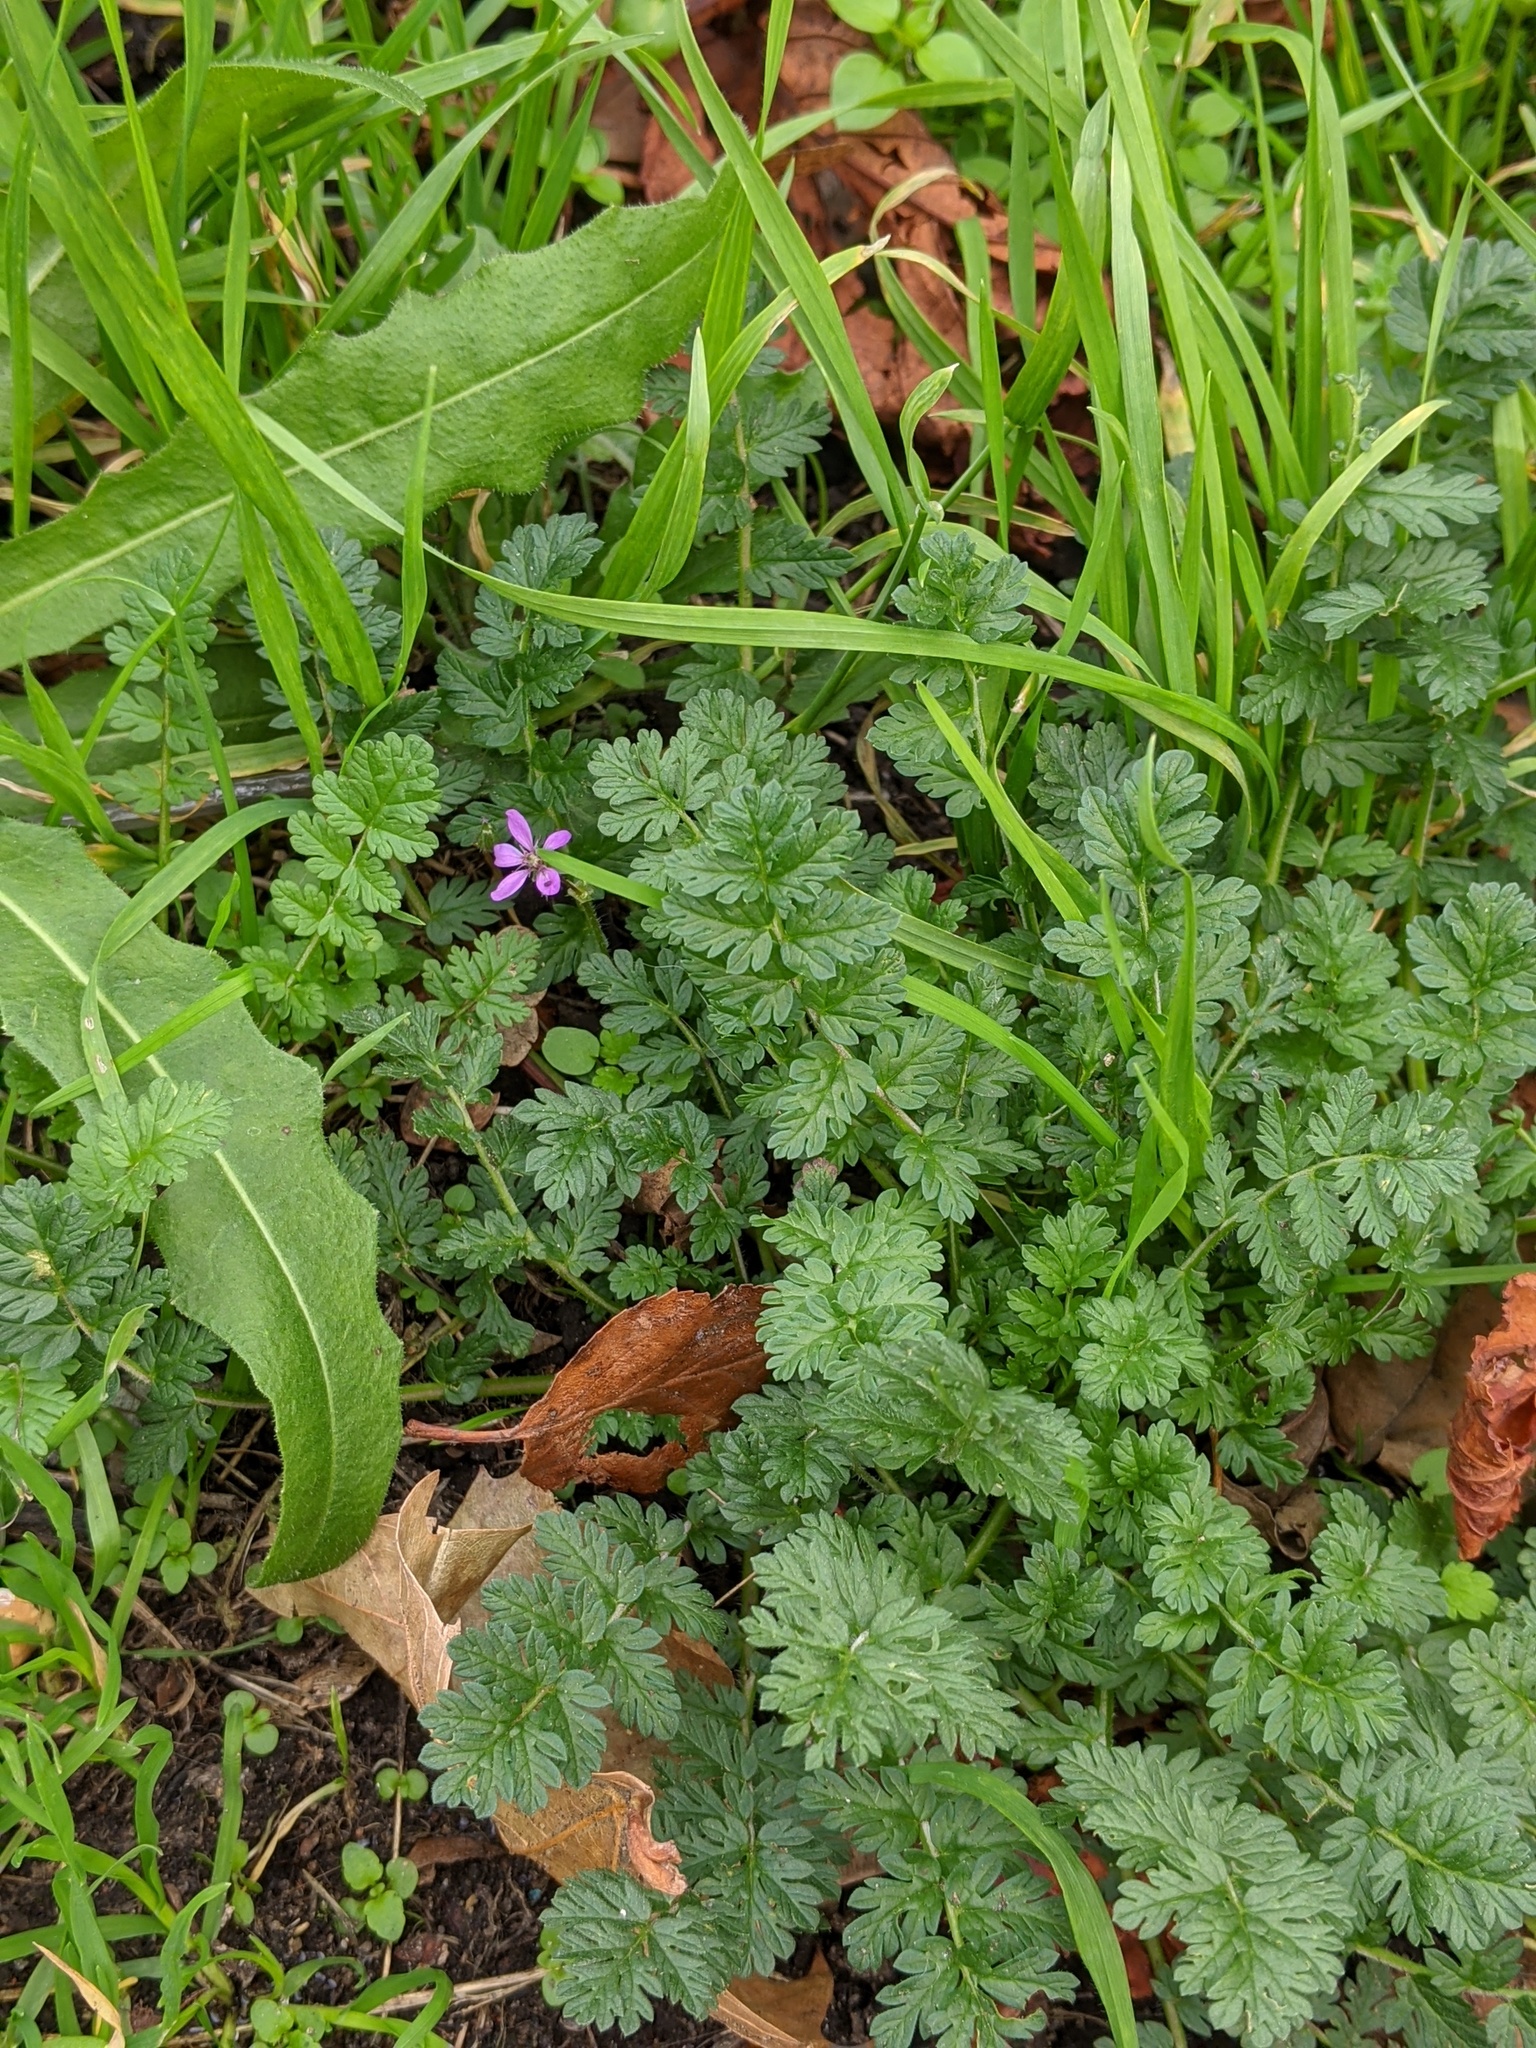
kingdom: Plantae
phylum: Tracheophyta
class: Magnoliopsida
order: Geraniales
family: Geraniaceae
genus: Erodium
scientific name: Erodium cicutarium
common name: Common stork's-bill
